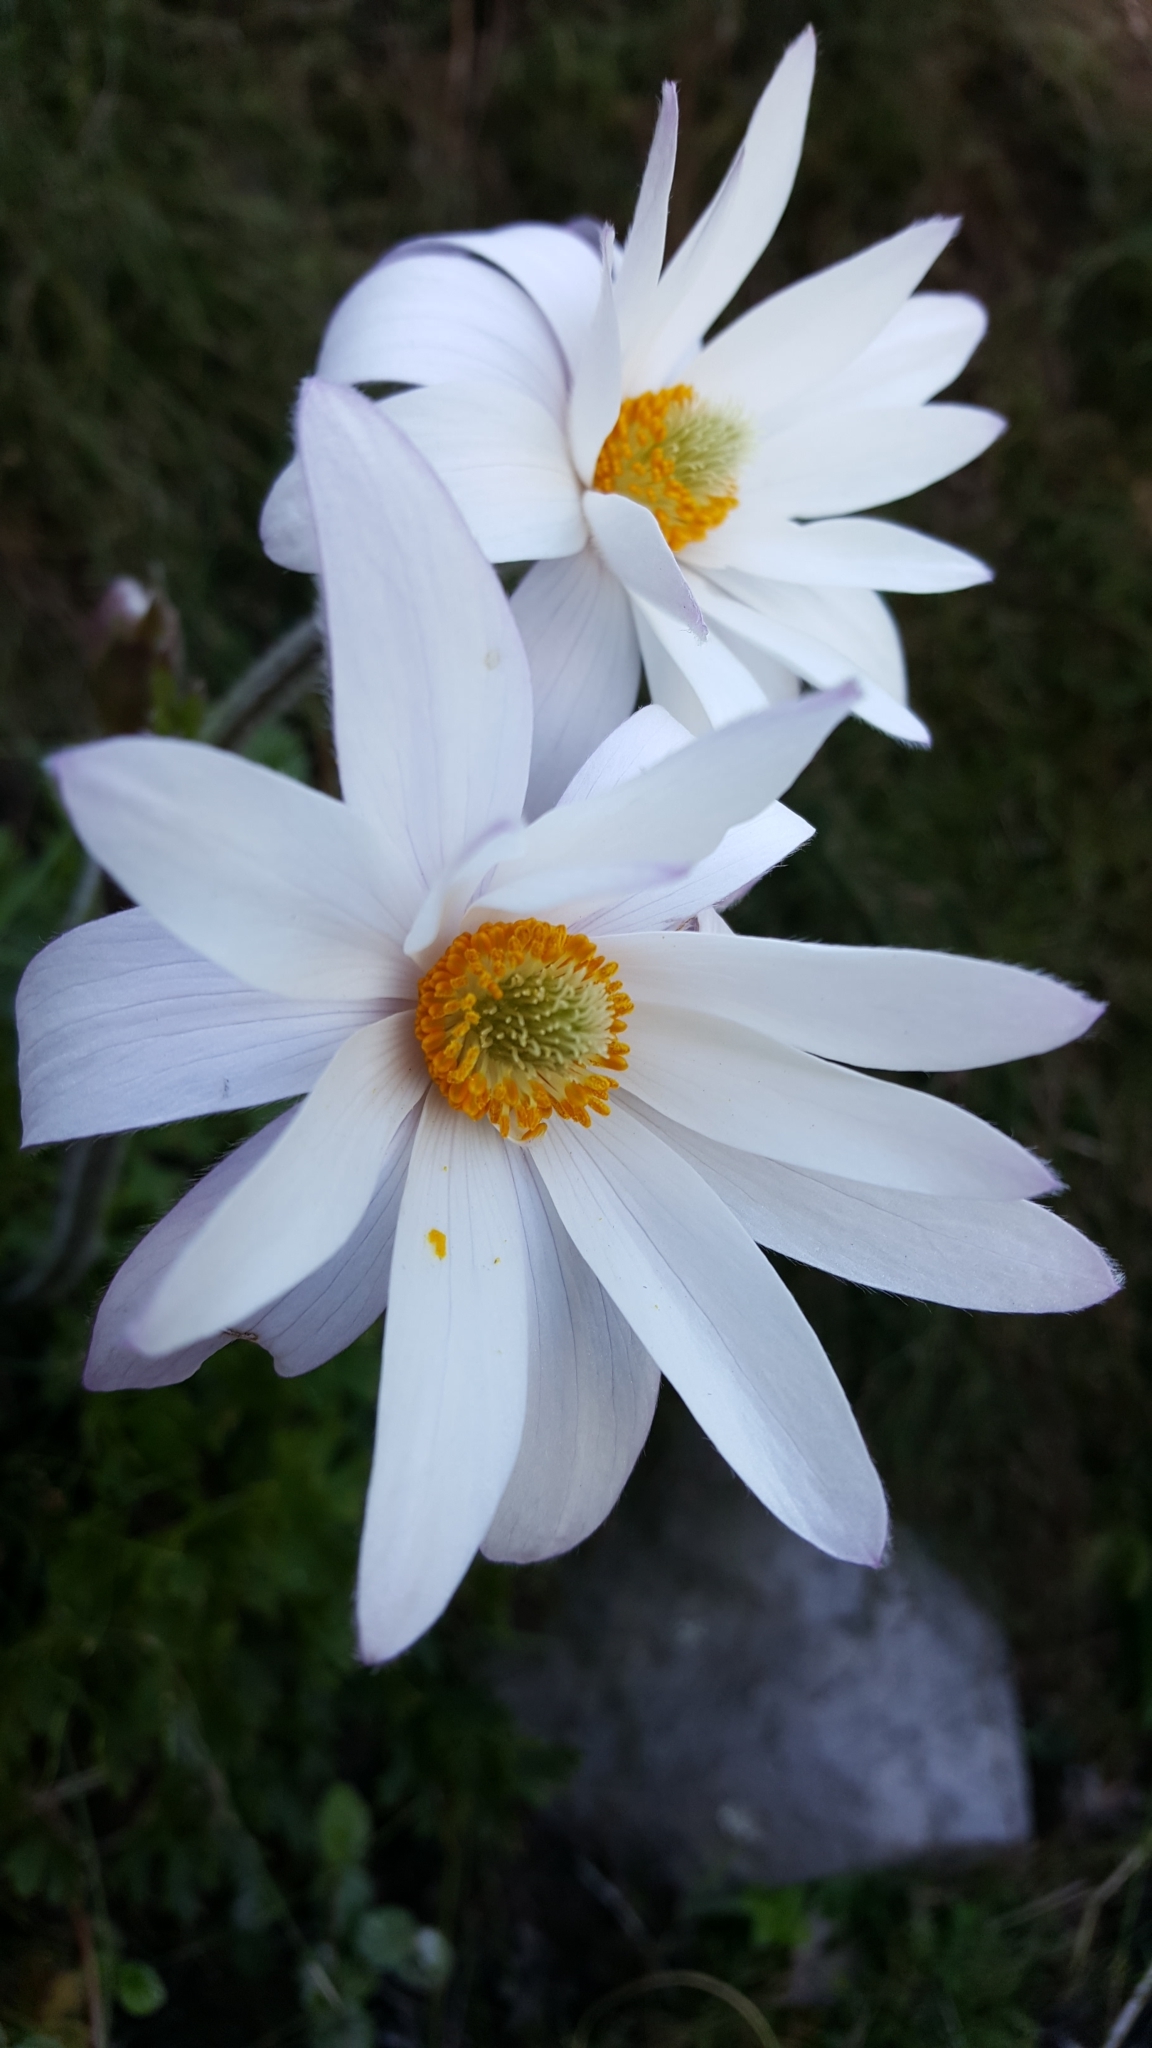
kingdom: Plantae
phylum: Tracheophyta
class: Magnoliopsida
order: Ranunculales
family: Ranunculaceae
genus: Knowltonia
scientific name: Knowltonia tenuifolia
